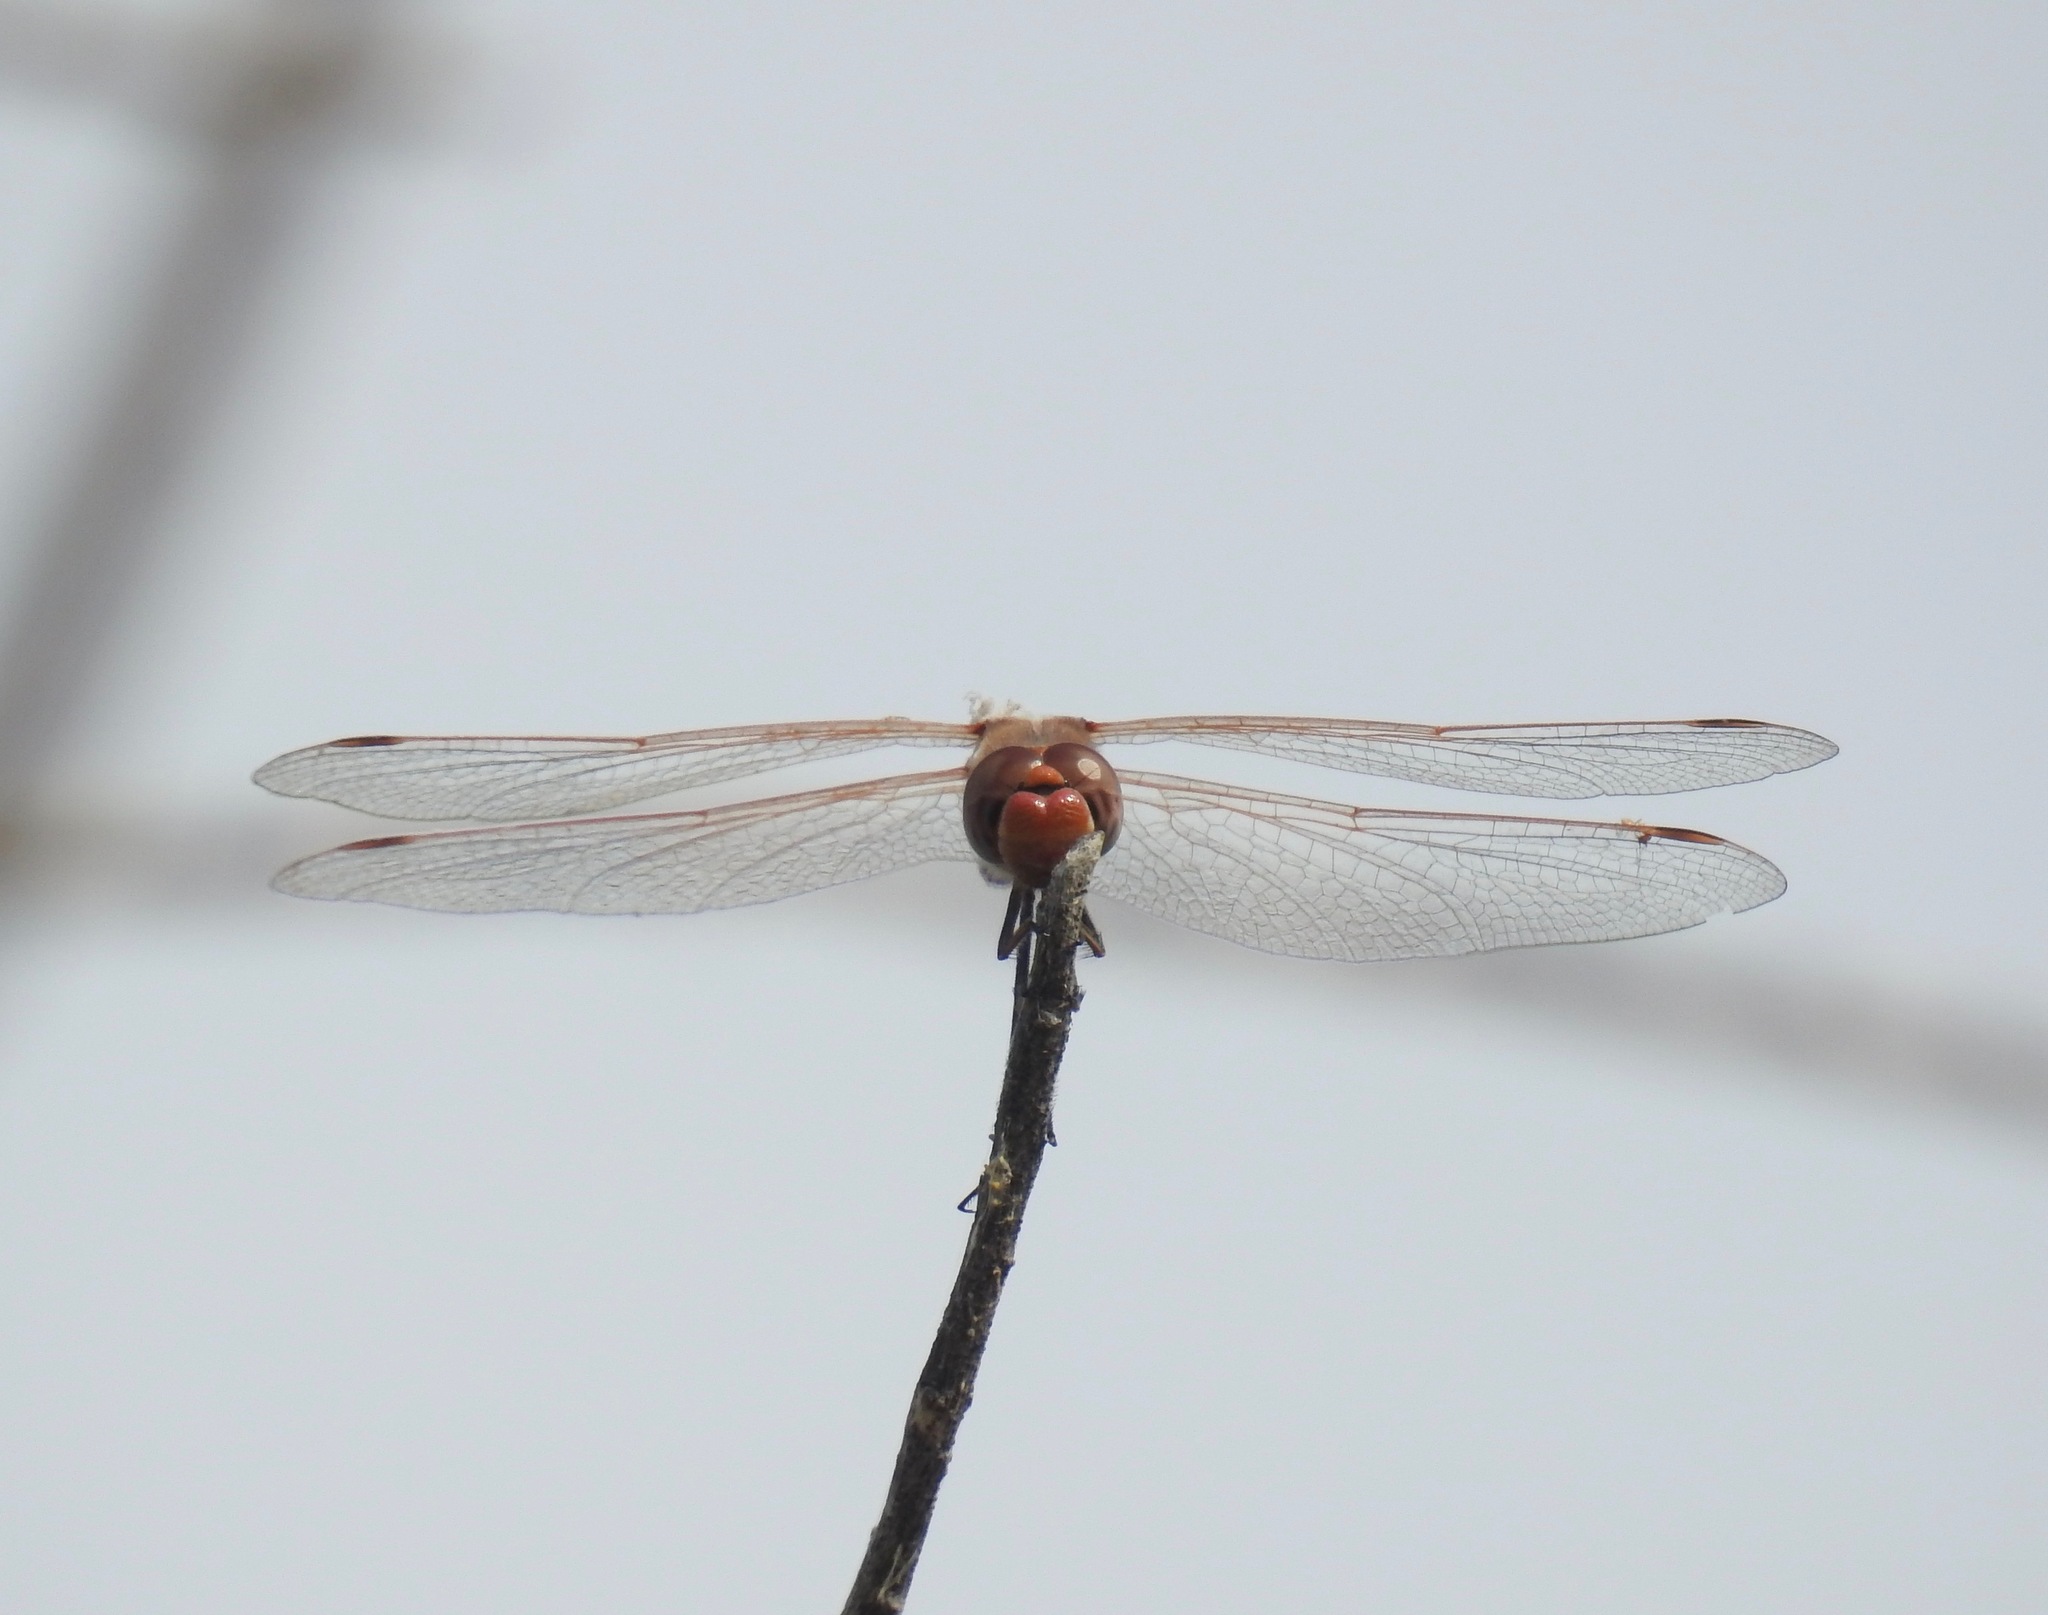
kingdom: Animalia
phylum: Arthropoda
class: Insecta
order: Odonata
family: Libellulidae
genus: Sympetrum
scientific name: Sympetrum corruptum
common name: Variegated meadowhawk
